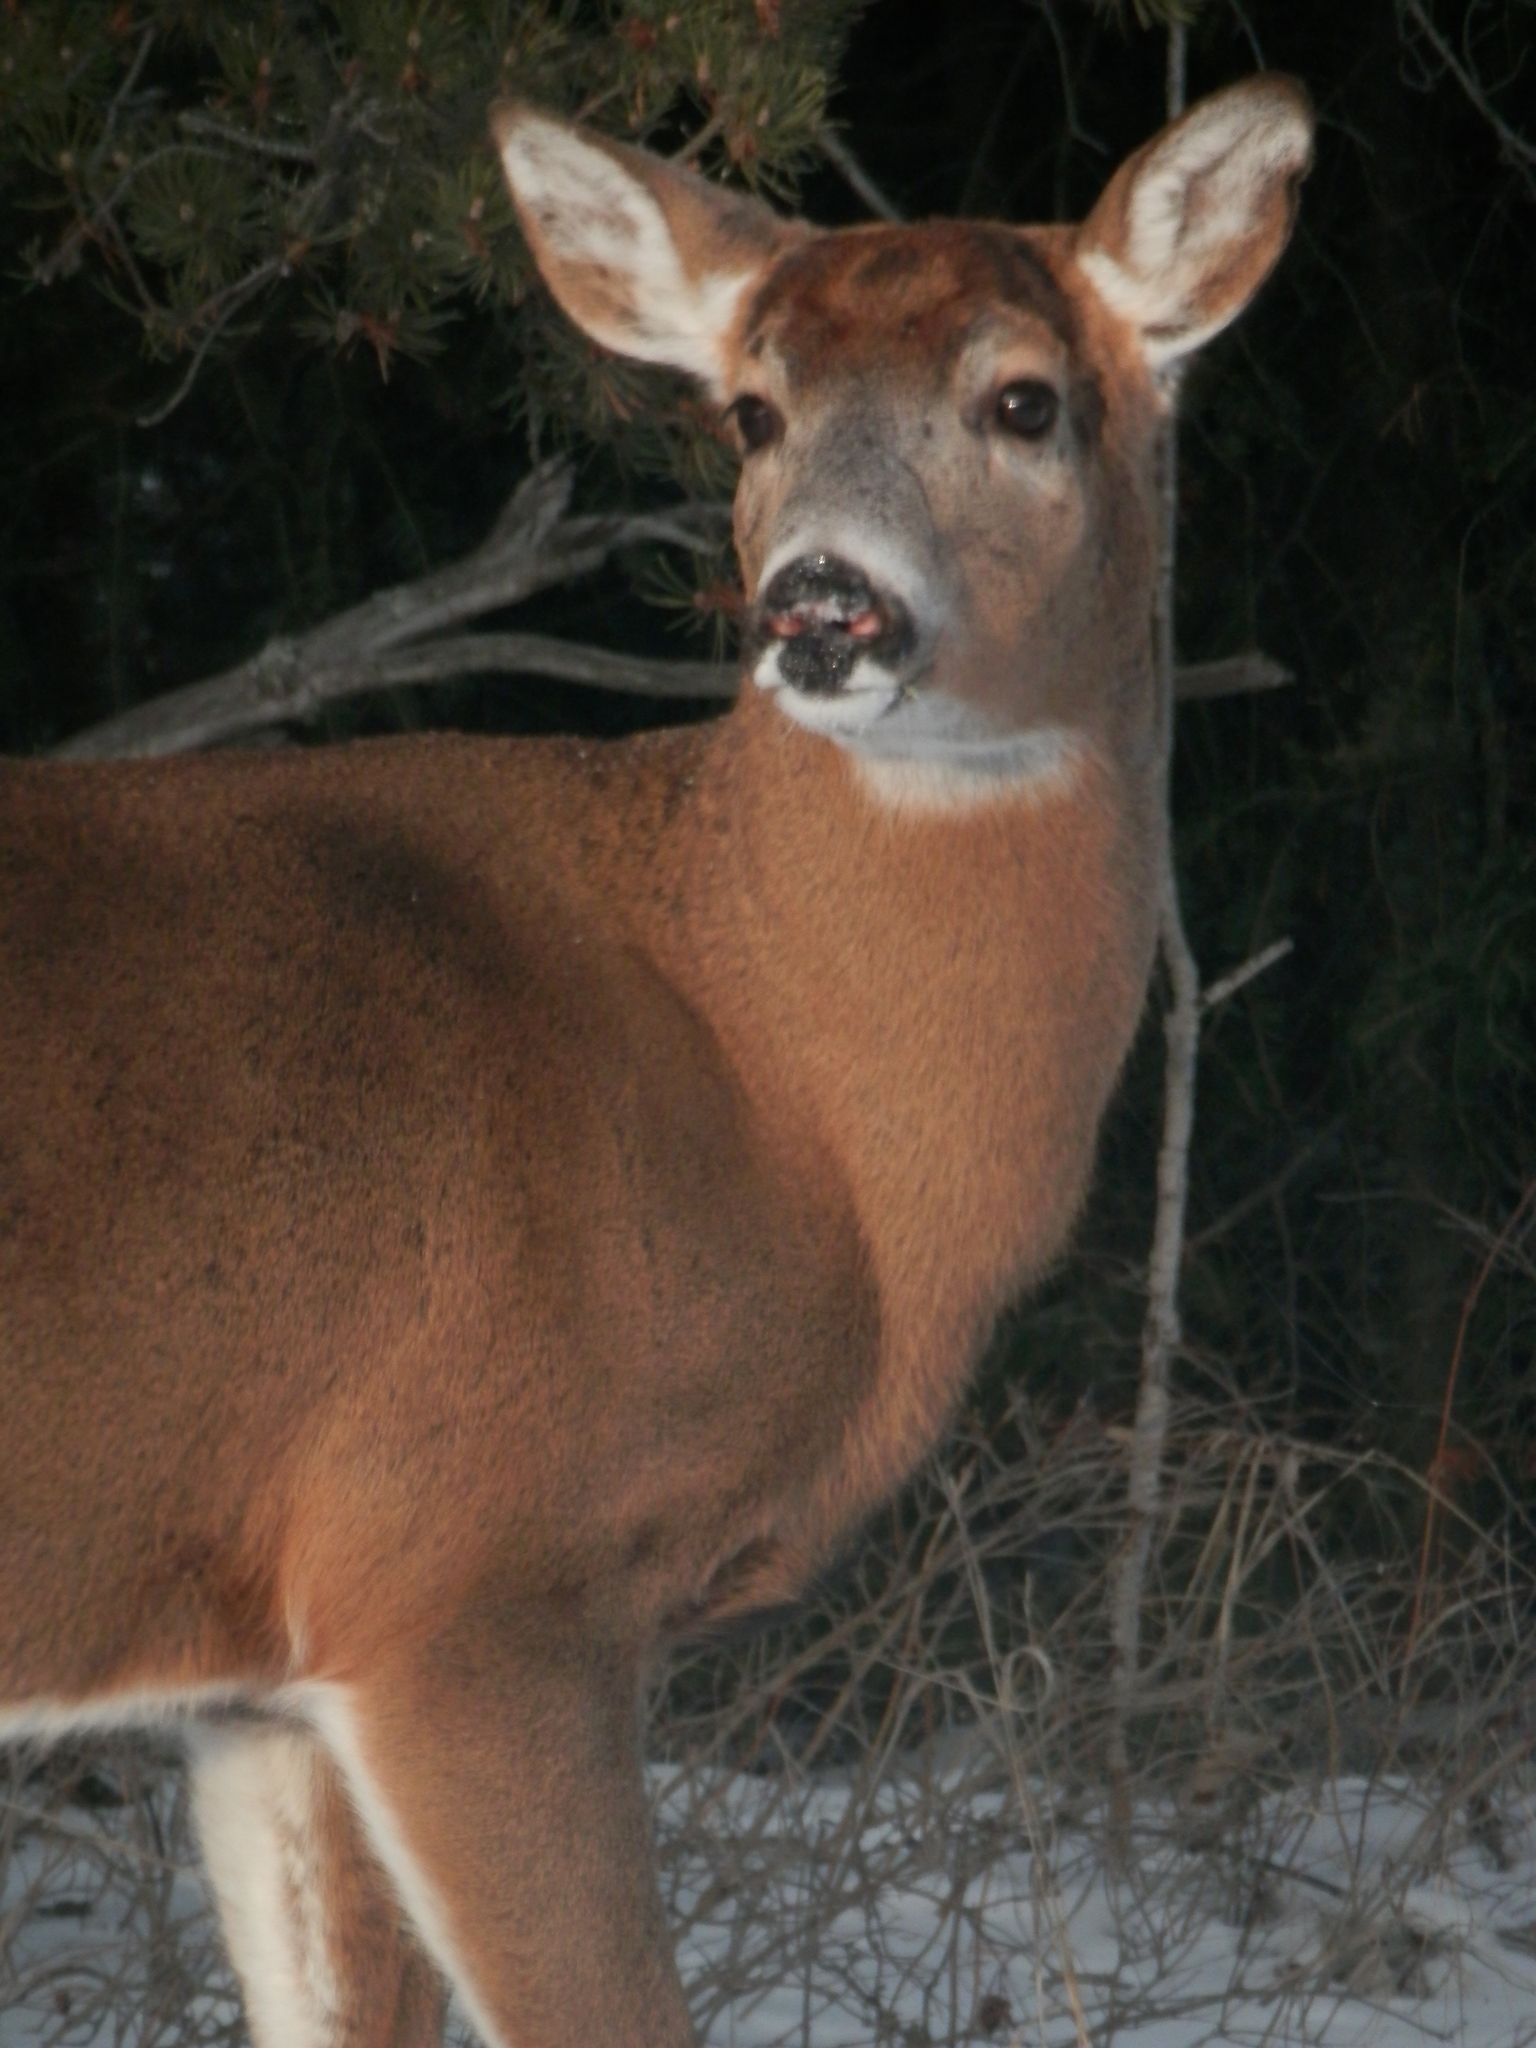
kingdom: Animalia
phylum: Chordata
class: Mammalia
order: Artiodactyla
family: Cervidae
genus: Odocoileus
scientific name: Odocoileus virginianus
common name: White-tailed deer
